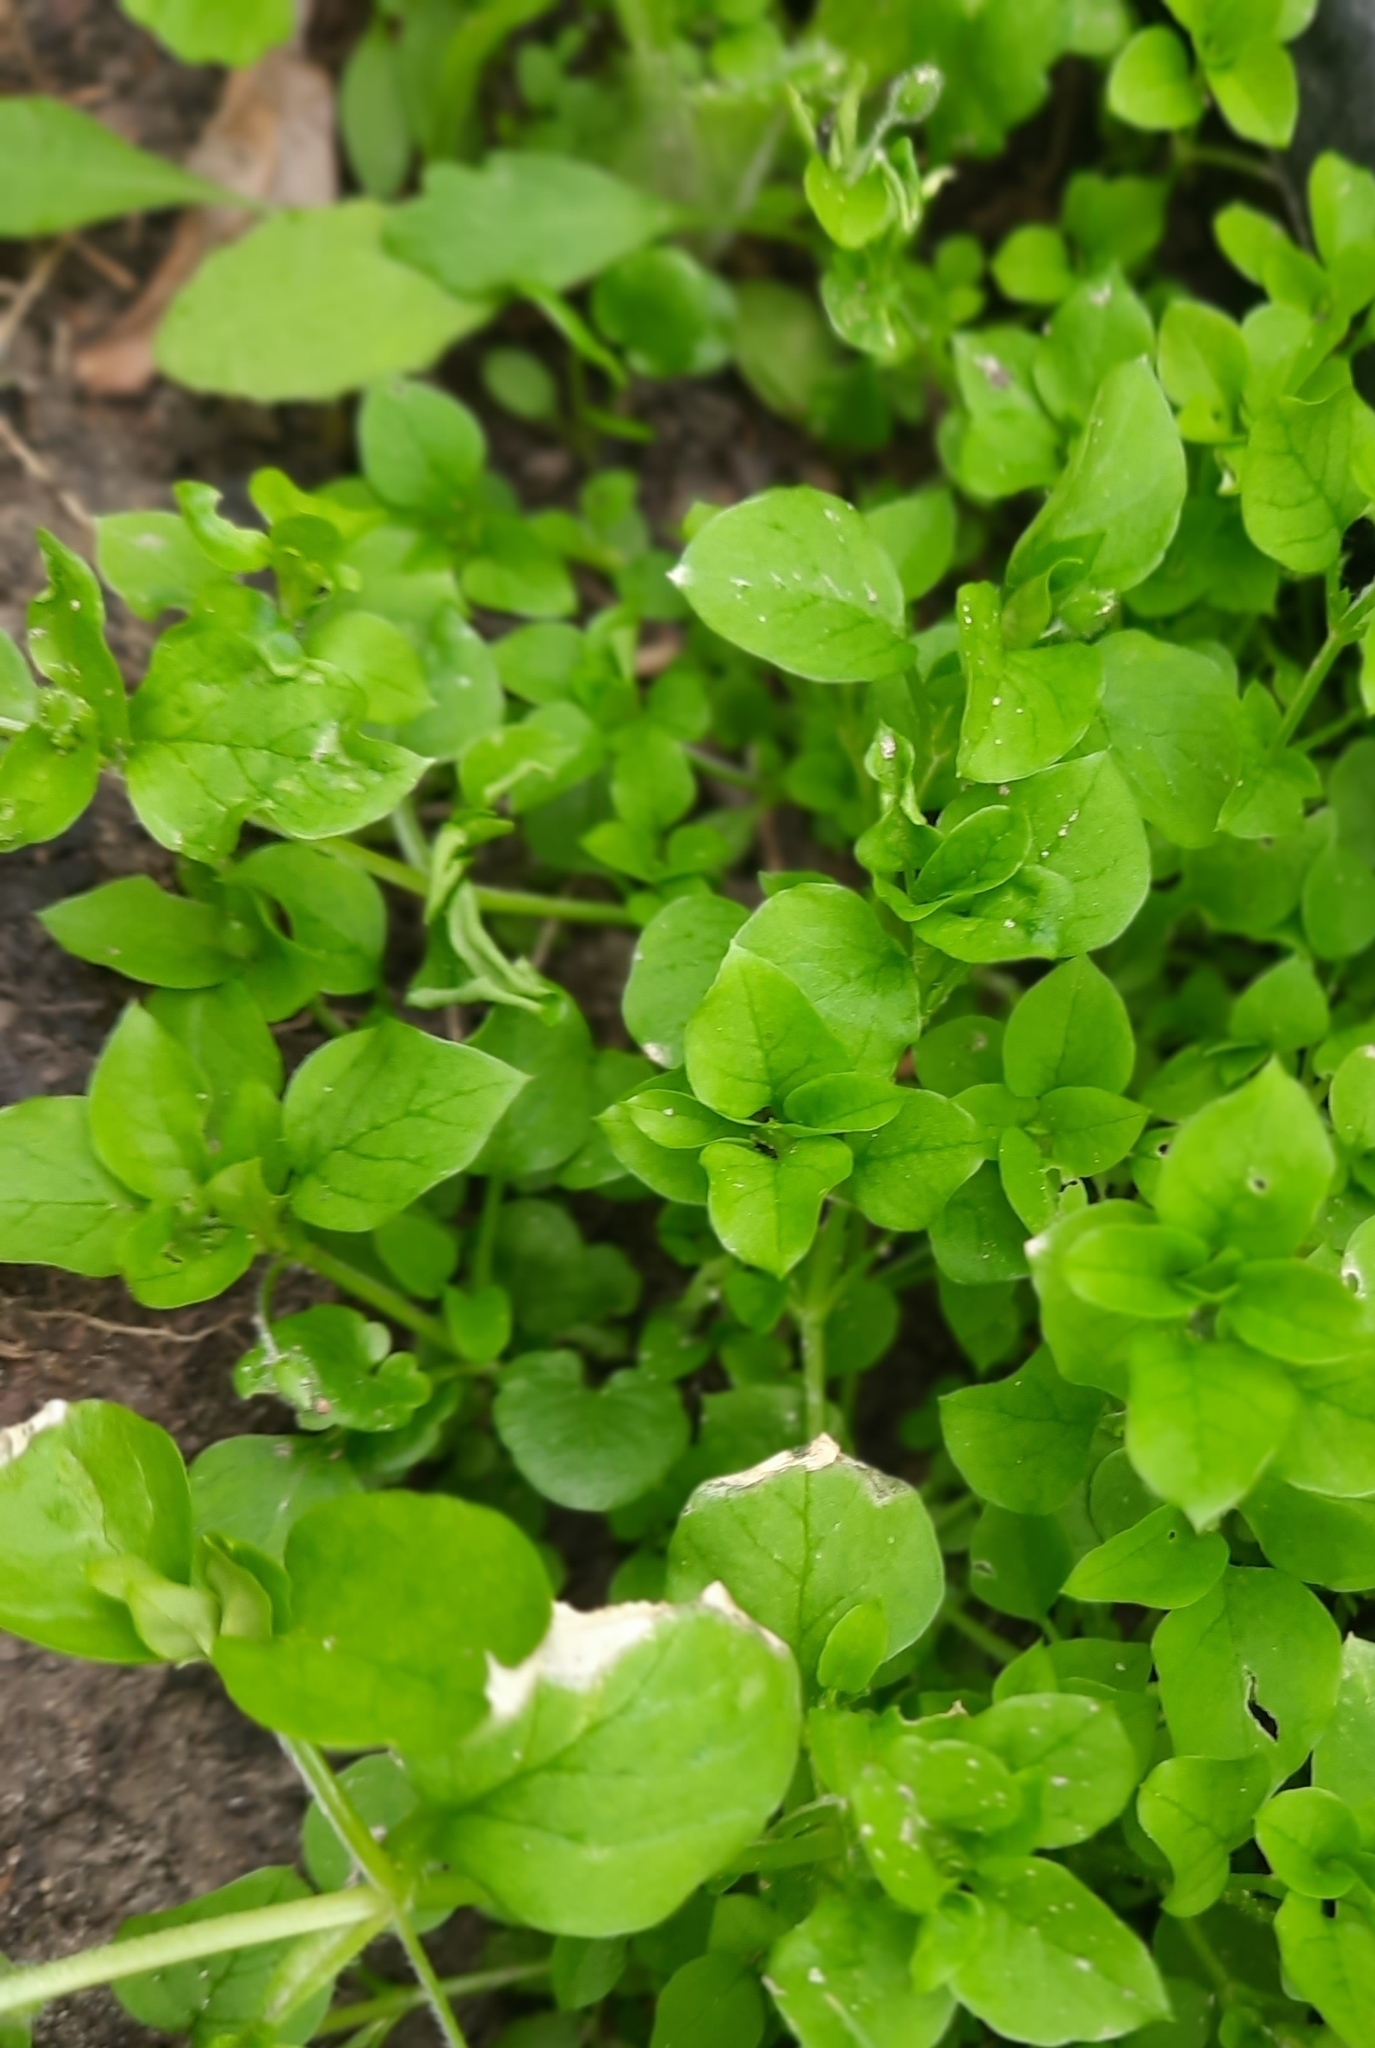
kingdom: Plantae
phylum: Tracheophyta
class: Magnoliopsida
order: Caryophyllales
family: Caryophyllaceae
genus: Stellaria
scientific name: Stellaria media
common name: Common chickweed
